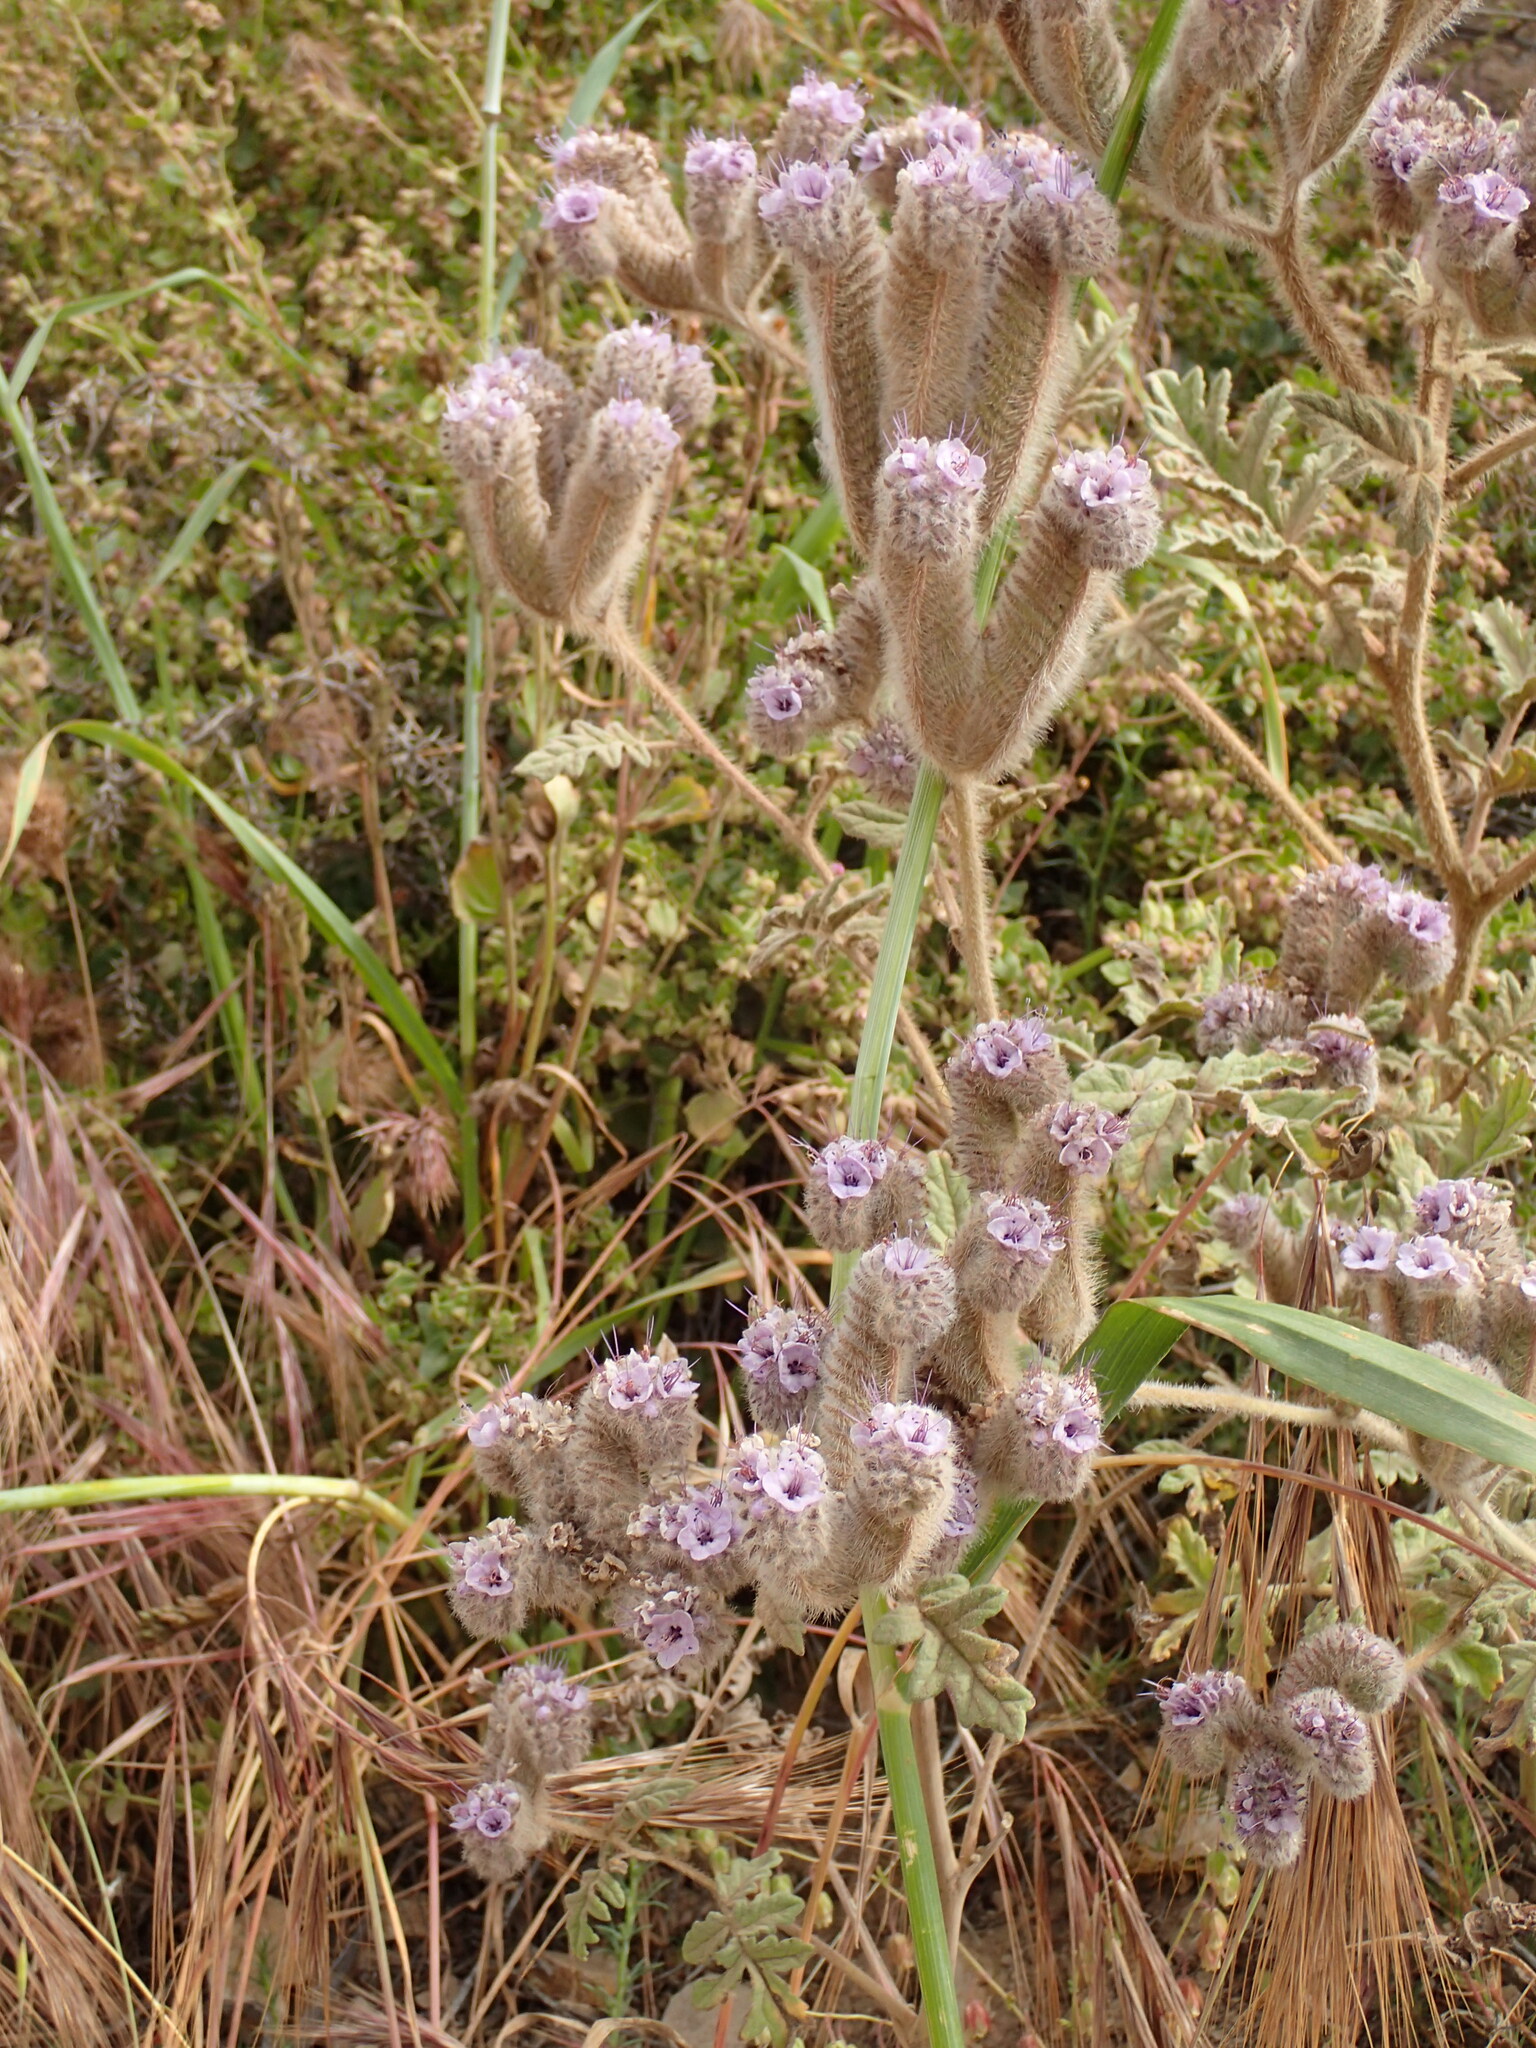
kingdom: Plantae
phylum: Tracheophyta
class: Magnoliopsida
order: Boraginales
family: Hydrophyllaceae
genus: Phacelia
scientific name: Phacelia hubbyi
